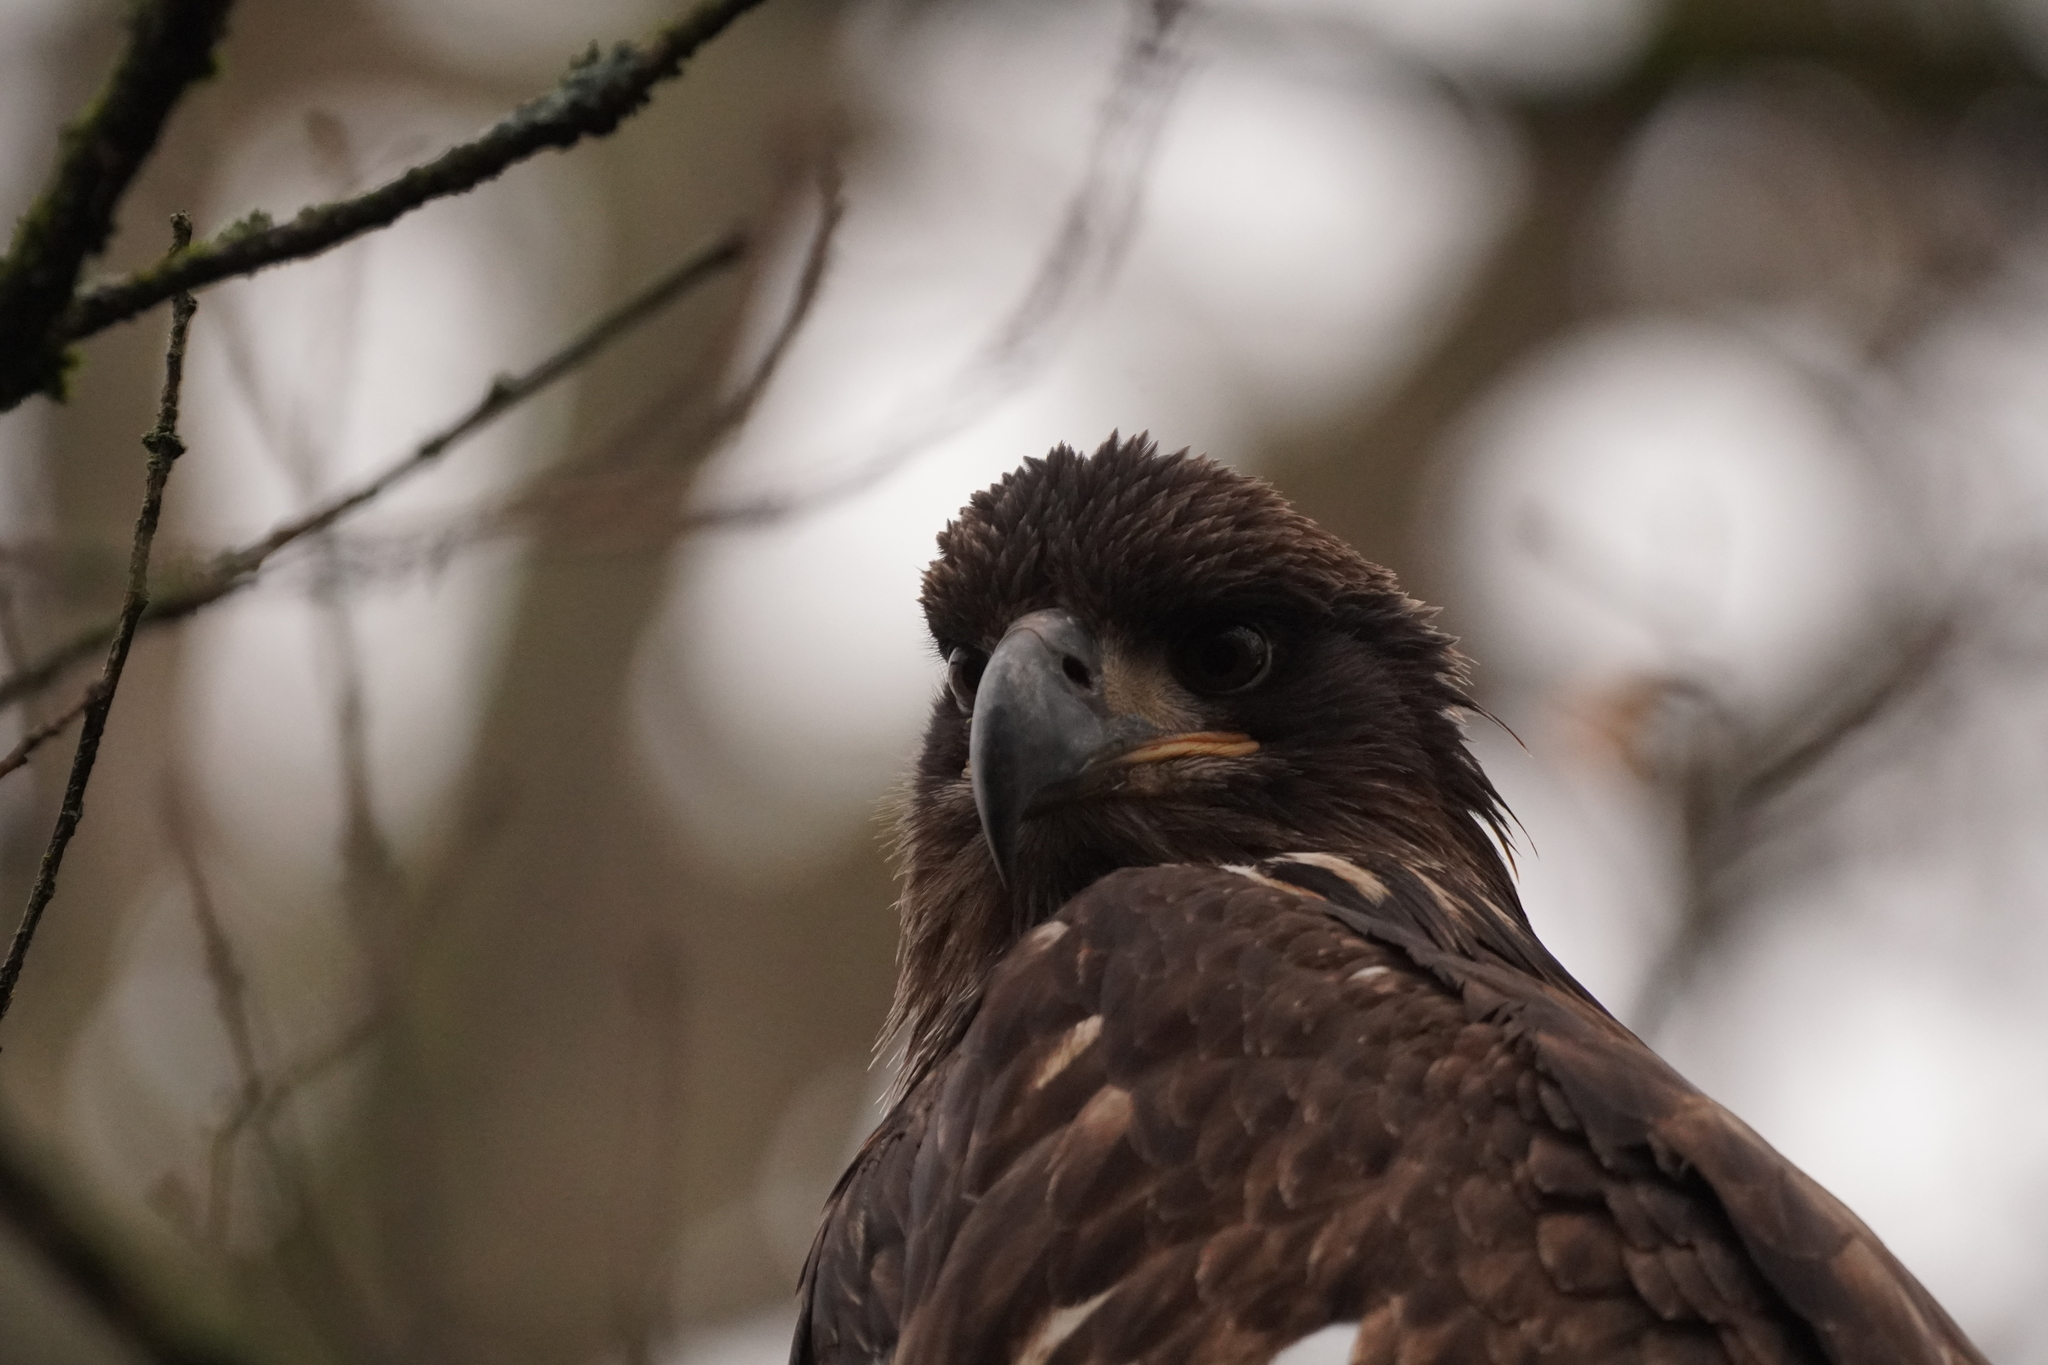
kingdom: Animalia
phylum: Chordata
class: Aves
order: Accipitriformes
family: Accipitridae
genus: Haliaeetus
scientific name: Haliaeetus leucocephalus
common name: Bald eagle
